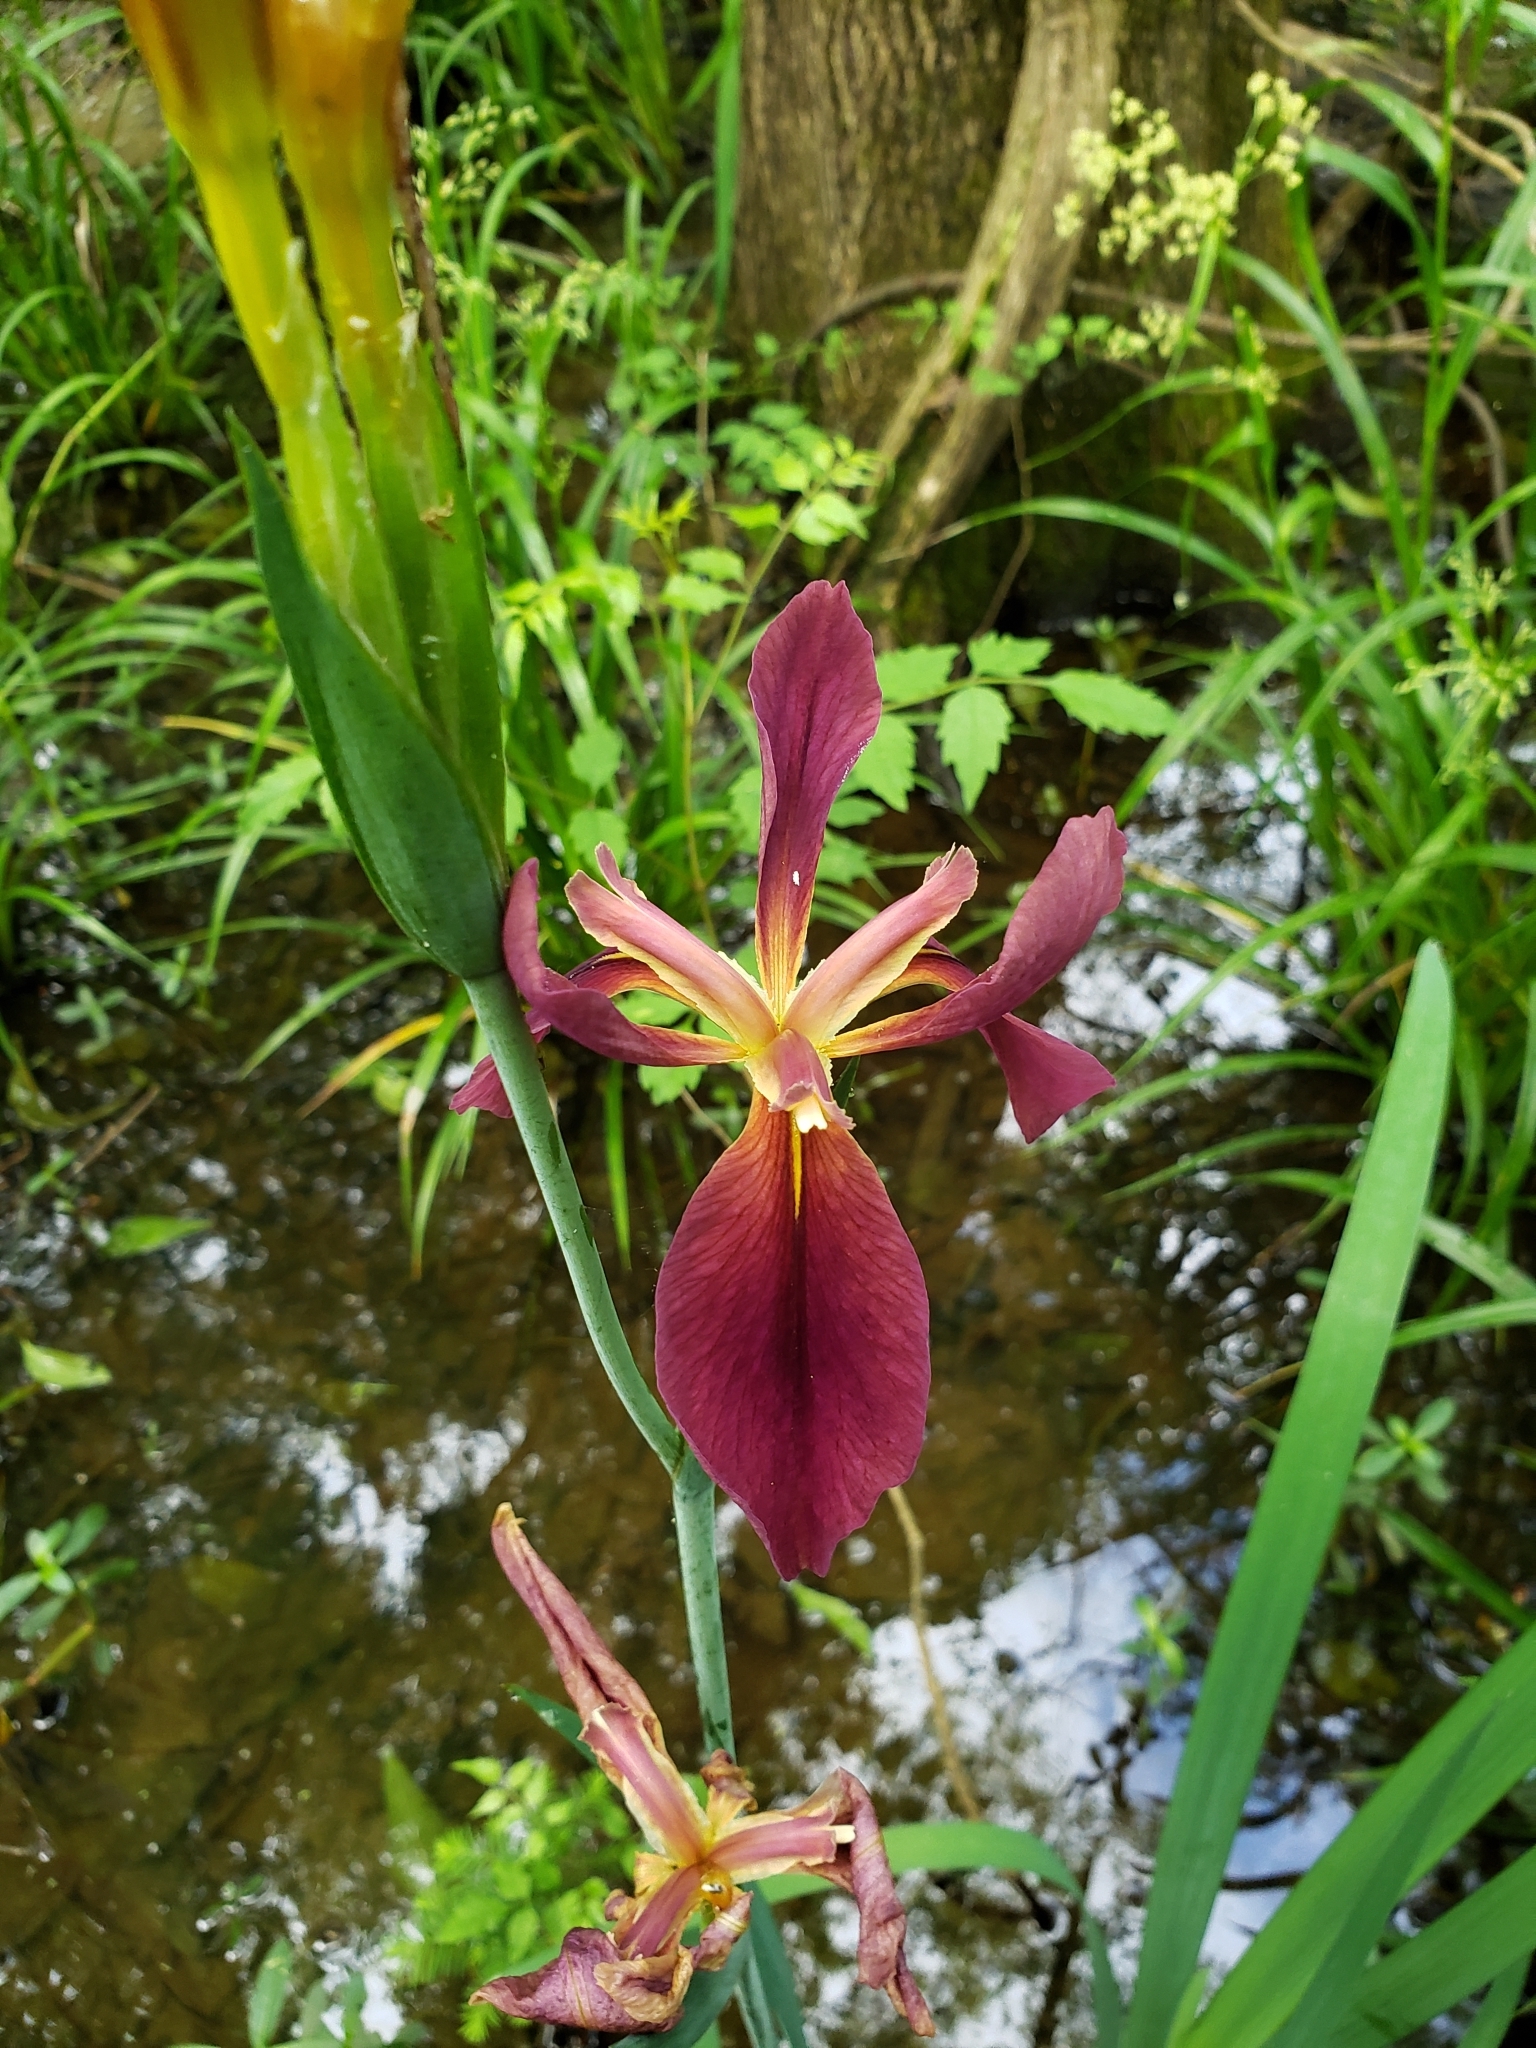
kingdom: Plantae
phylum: Tracheophyta
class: Liliopsida
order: Asparagales
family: Iridaceae
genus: Iris
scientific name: Iris fulva
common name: Copper iris
